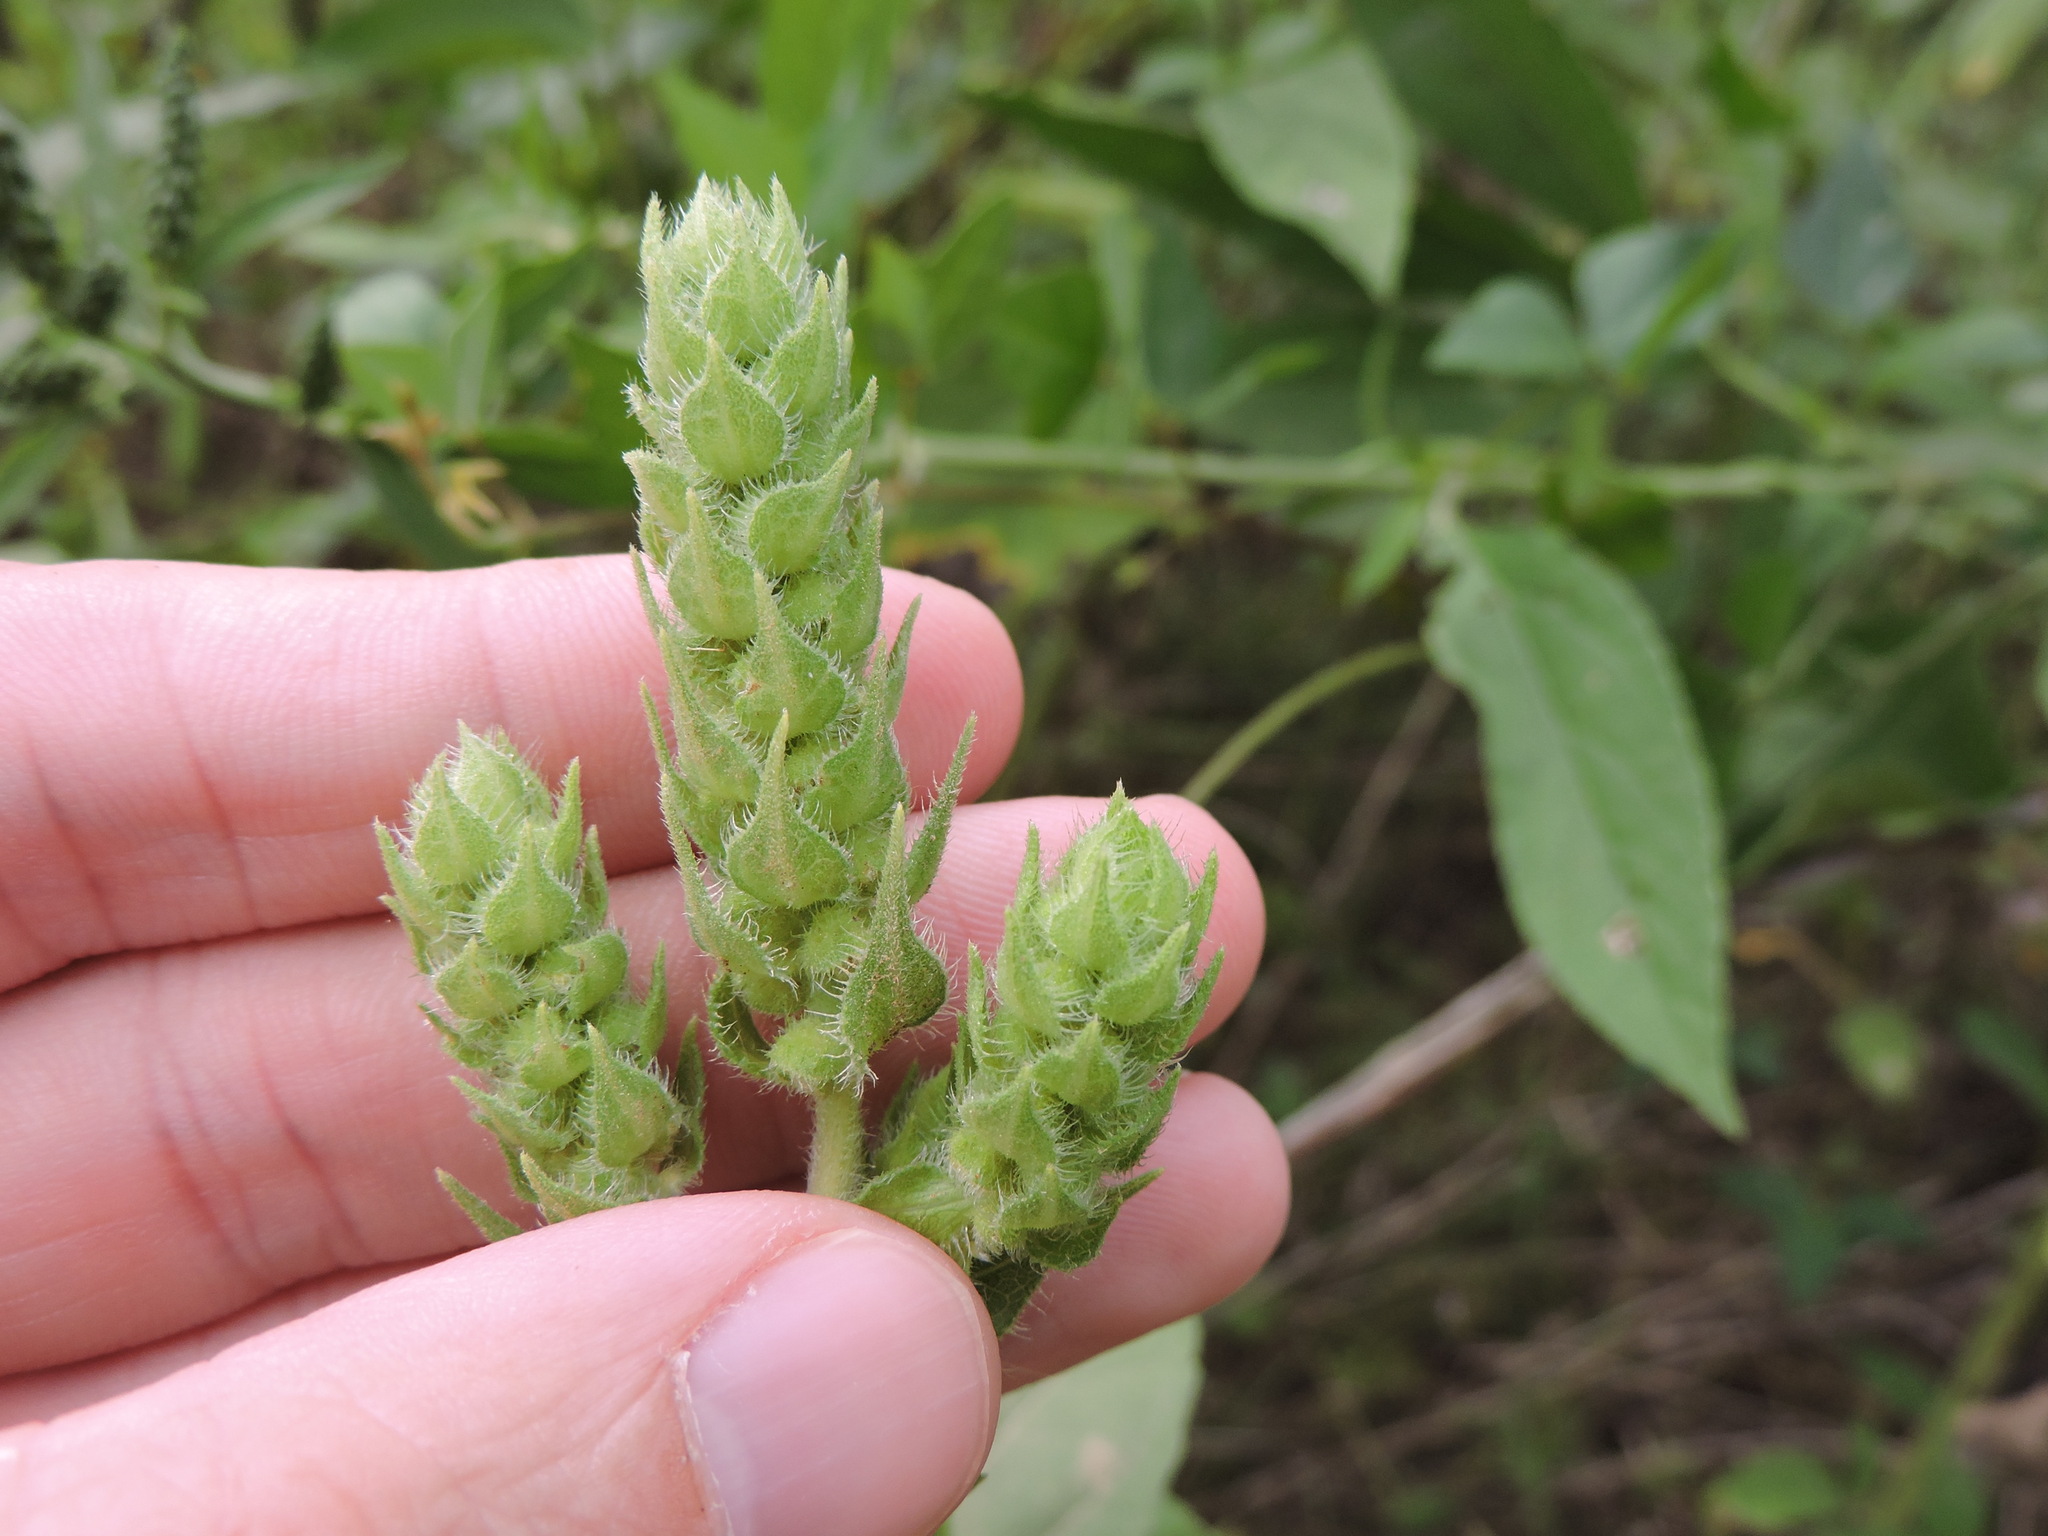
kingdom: Plantae
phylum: Tracheophyta
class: Magnoliopsida
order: Asterales
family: Asteraceae
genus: Iva
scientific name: Iva annua
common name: Marsh-elder
